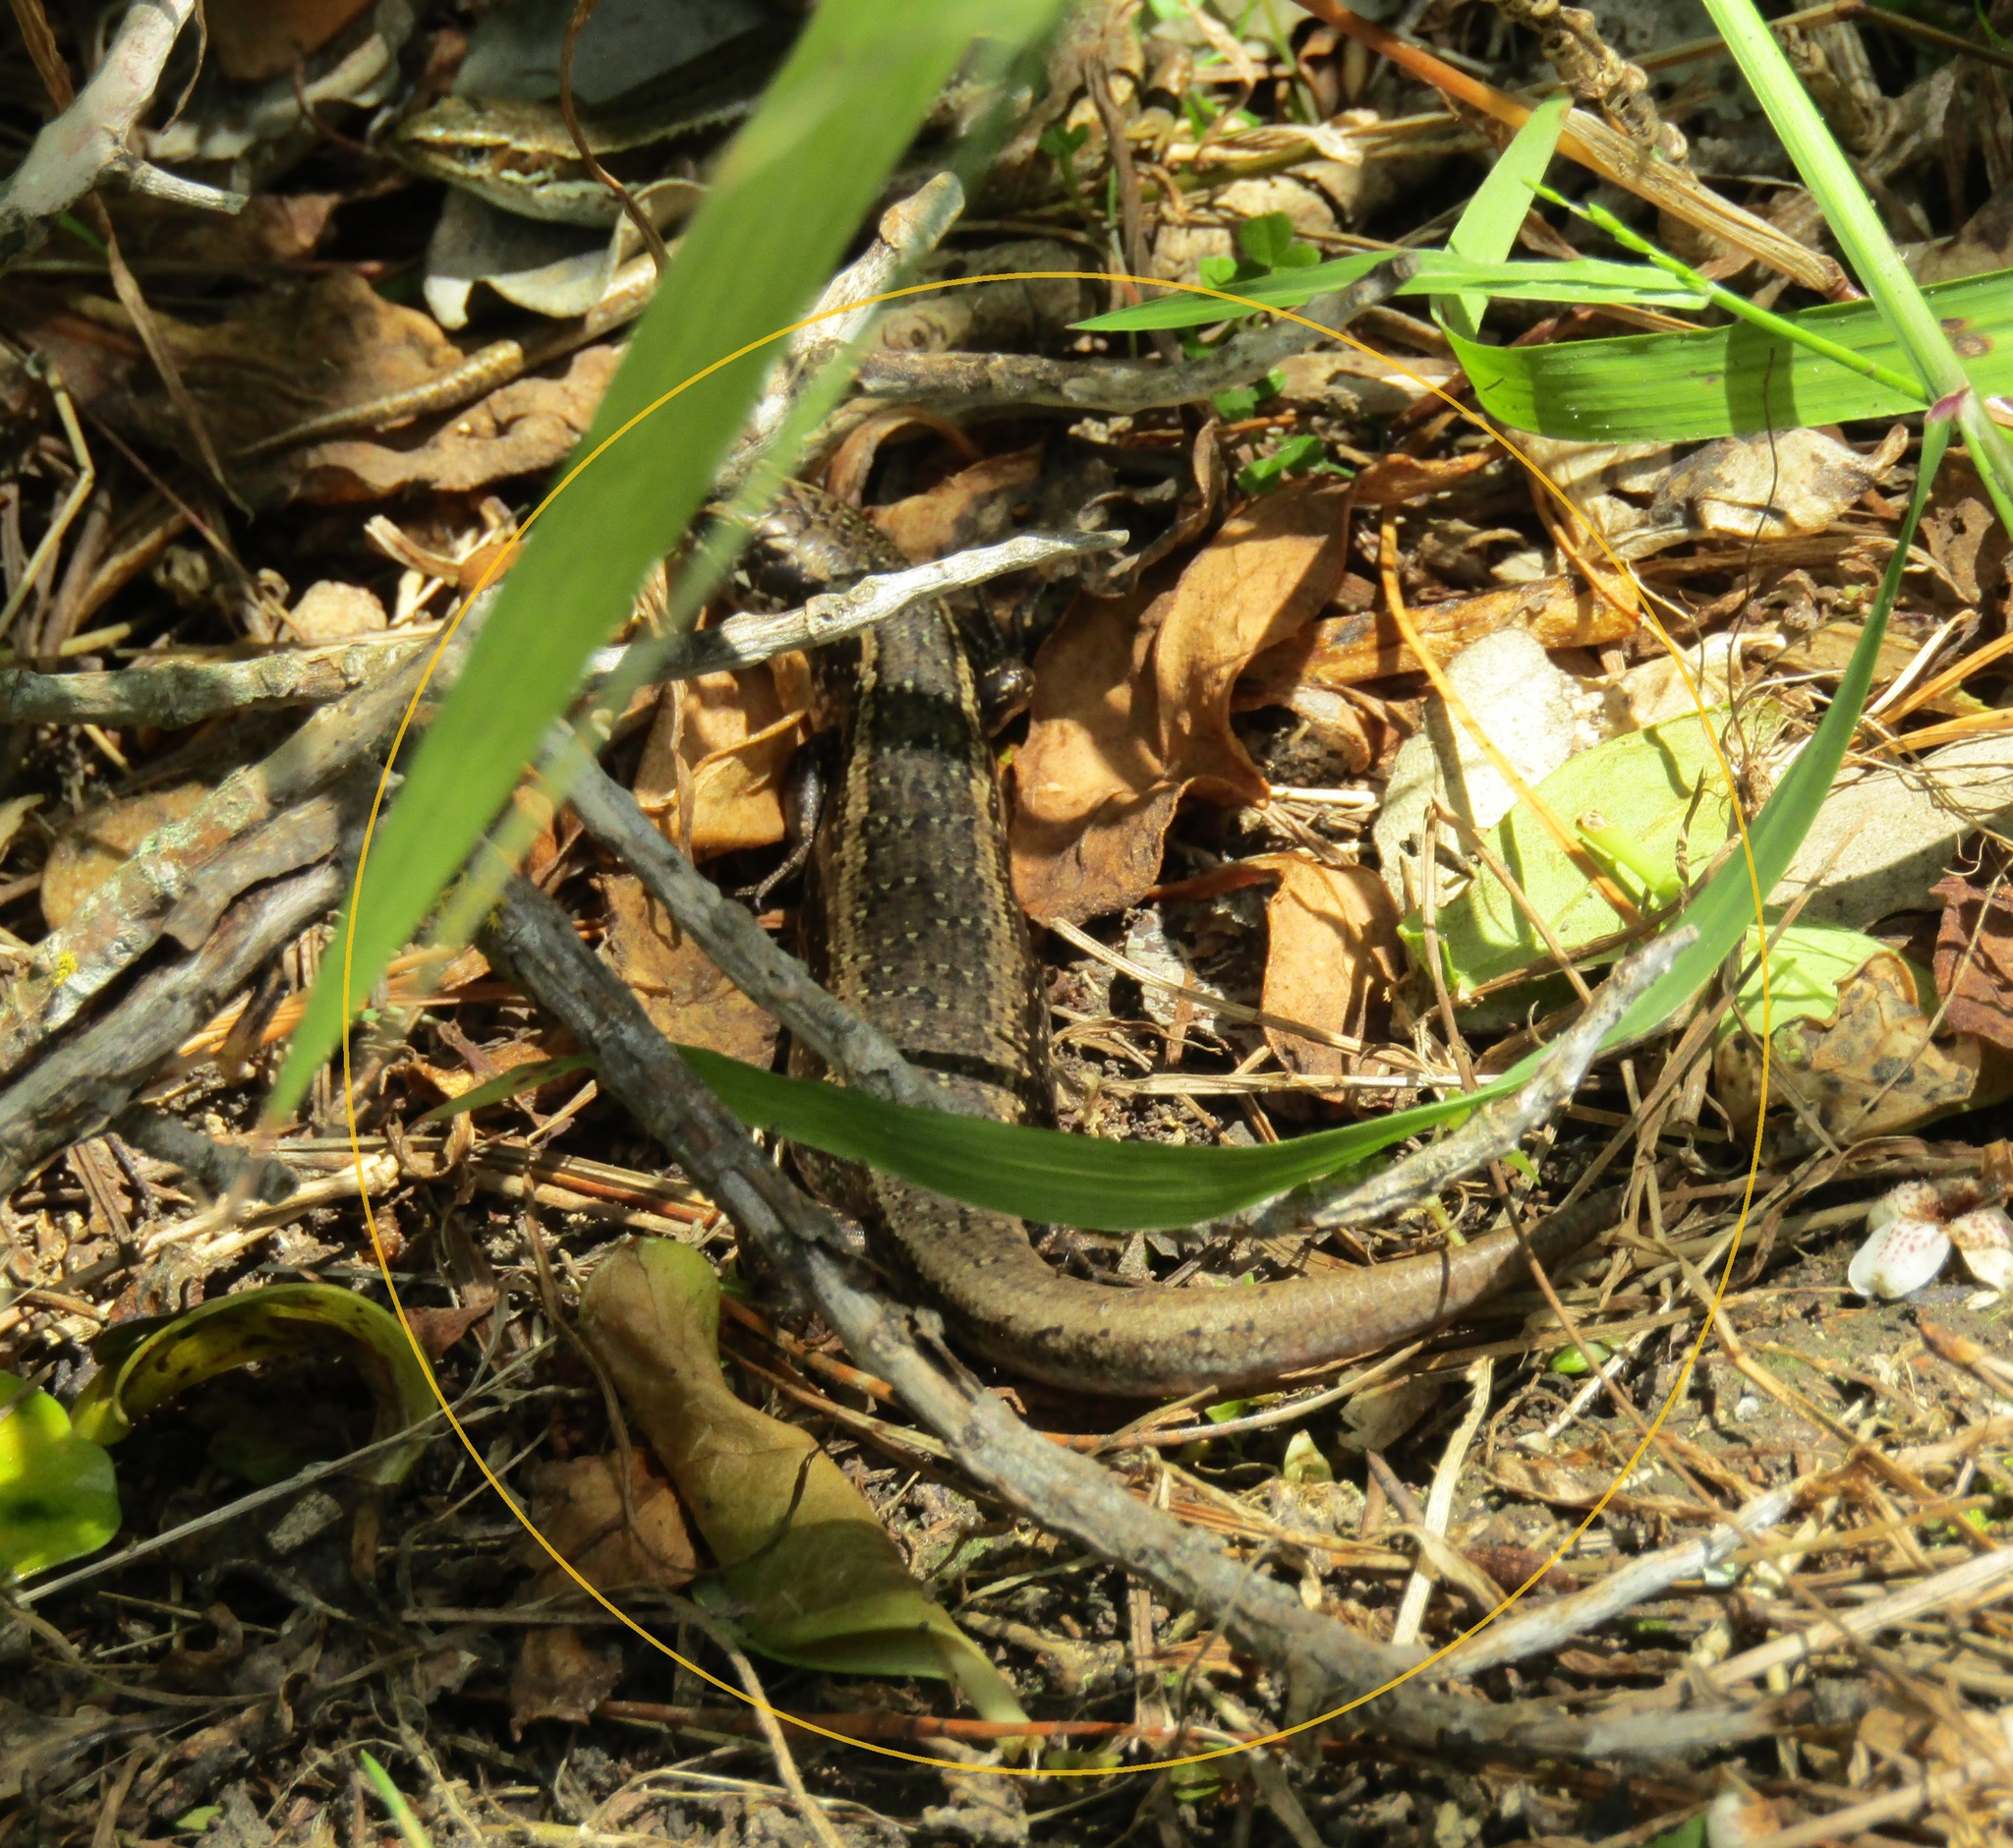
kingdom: Animalia
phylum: Chordata
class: Squamata
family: Scincidae
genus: Oligosoma
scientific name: Oligosoma kokowai
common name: Northern spotted skink
